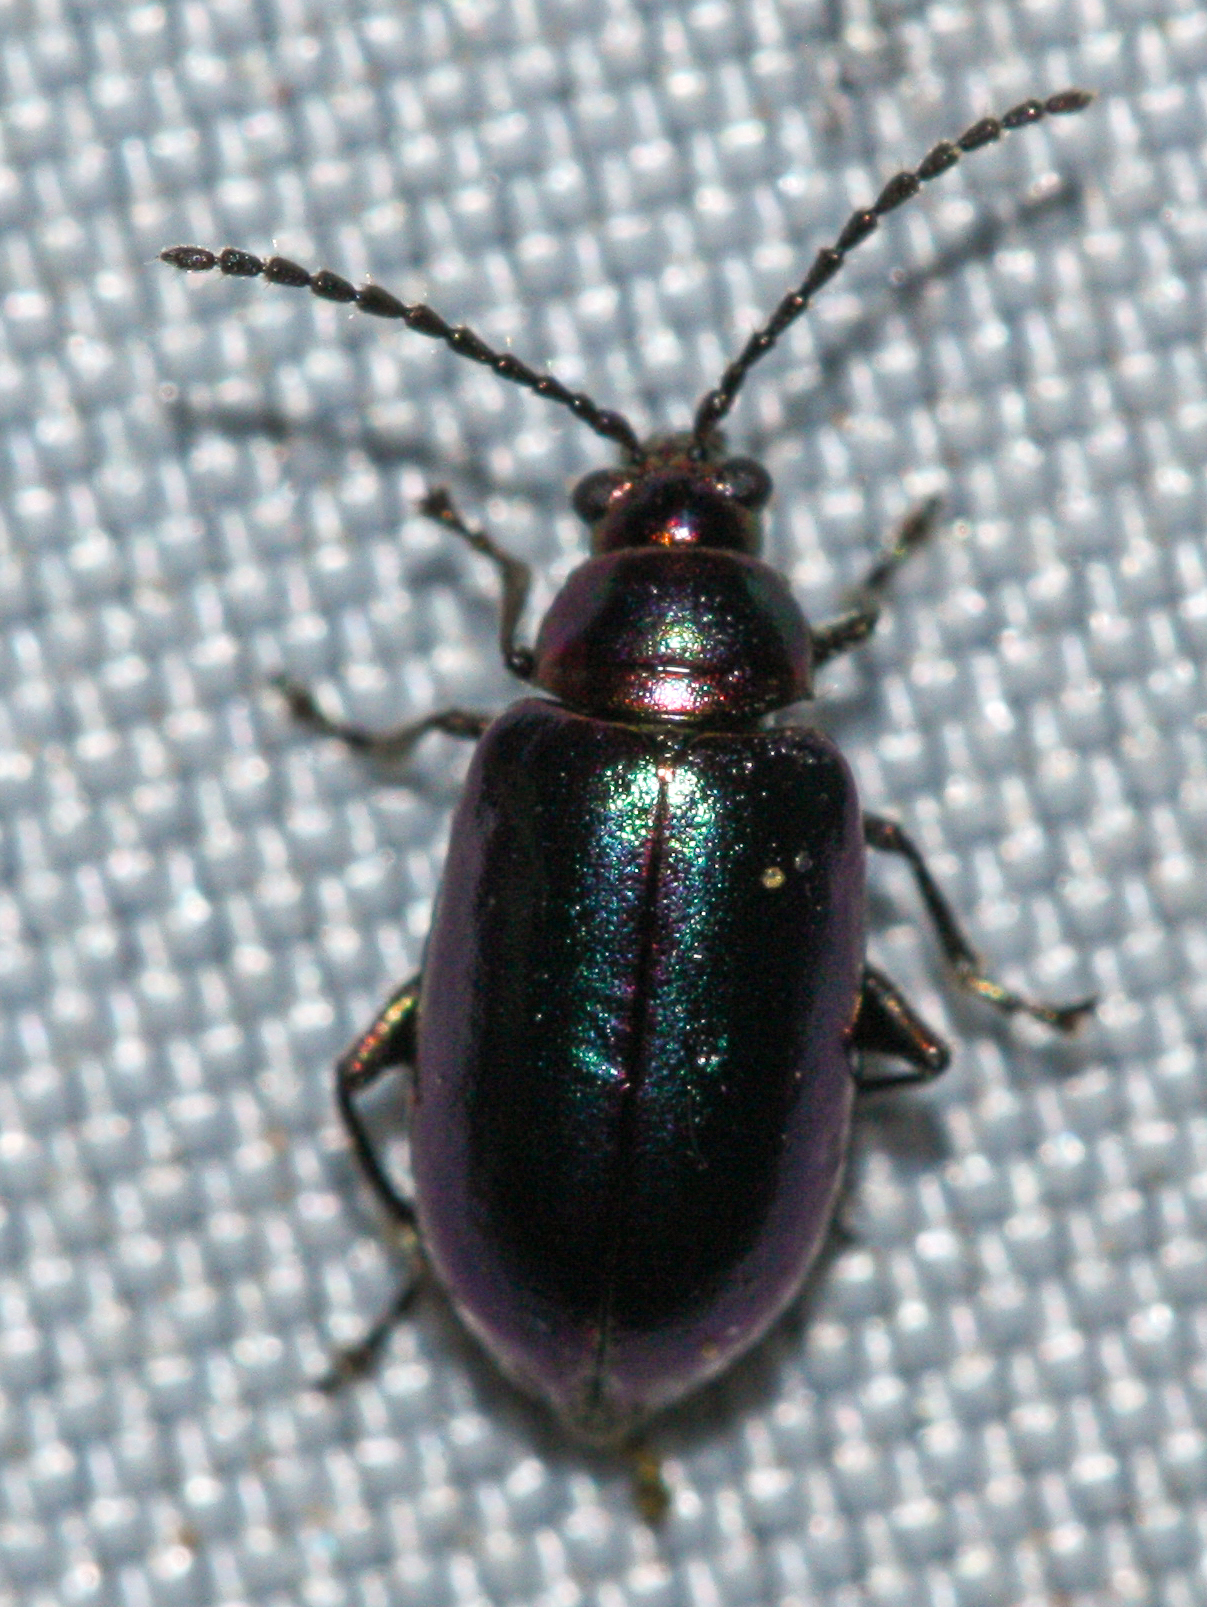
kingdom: Animalia
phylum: Arthropoda
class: Insecta
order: Coleoptera
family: Chrysomelidae
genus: Altica
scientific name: Altica torquata
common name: Leaf beetle
